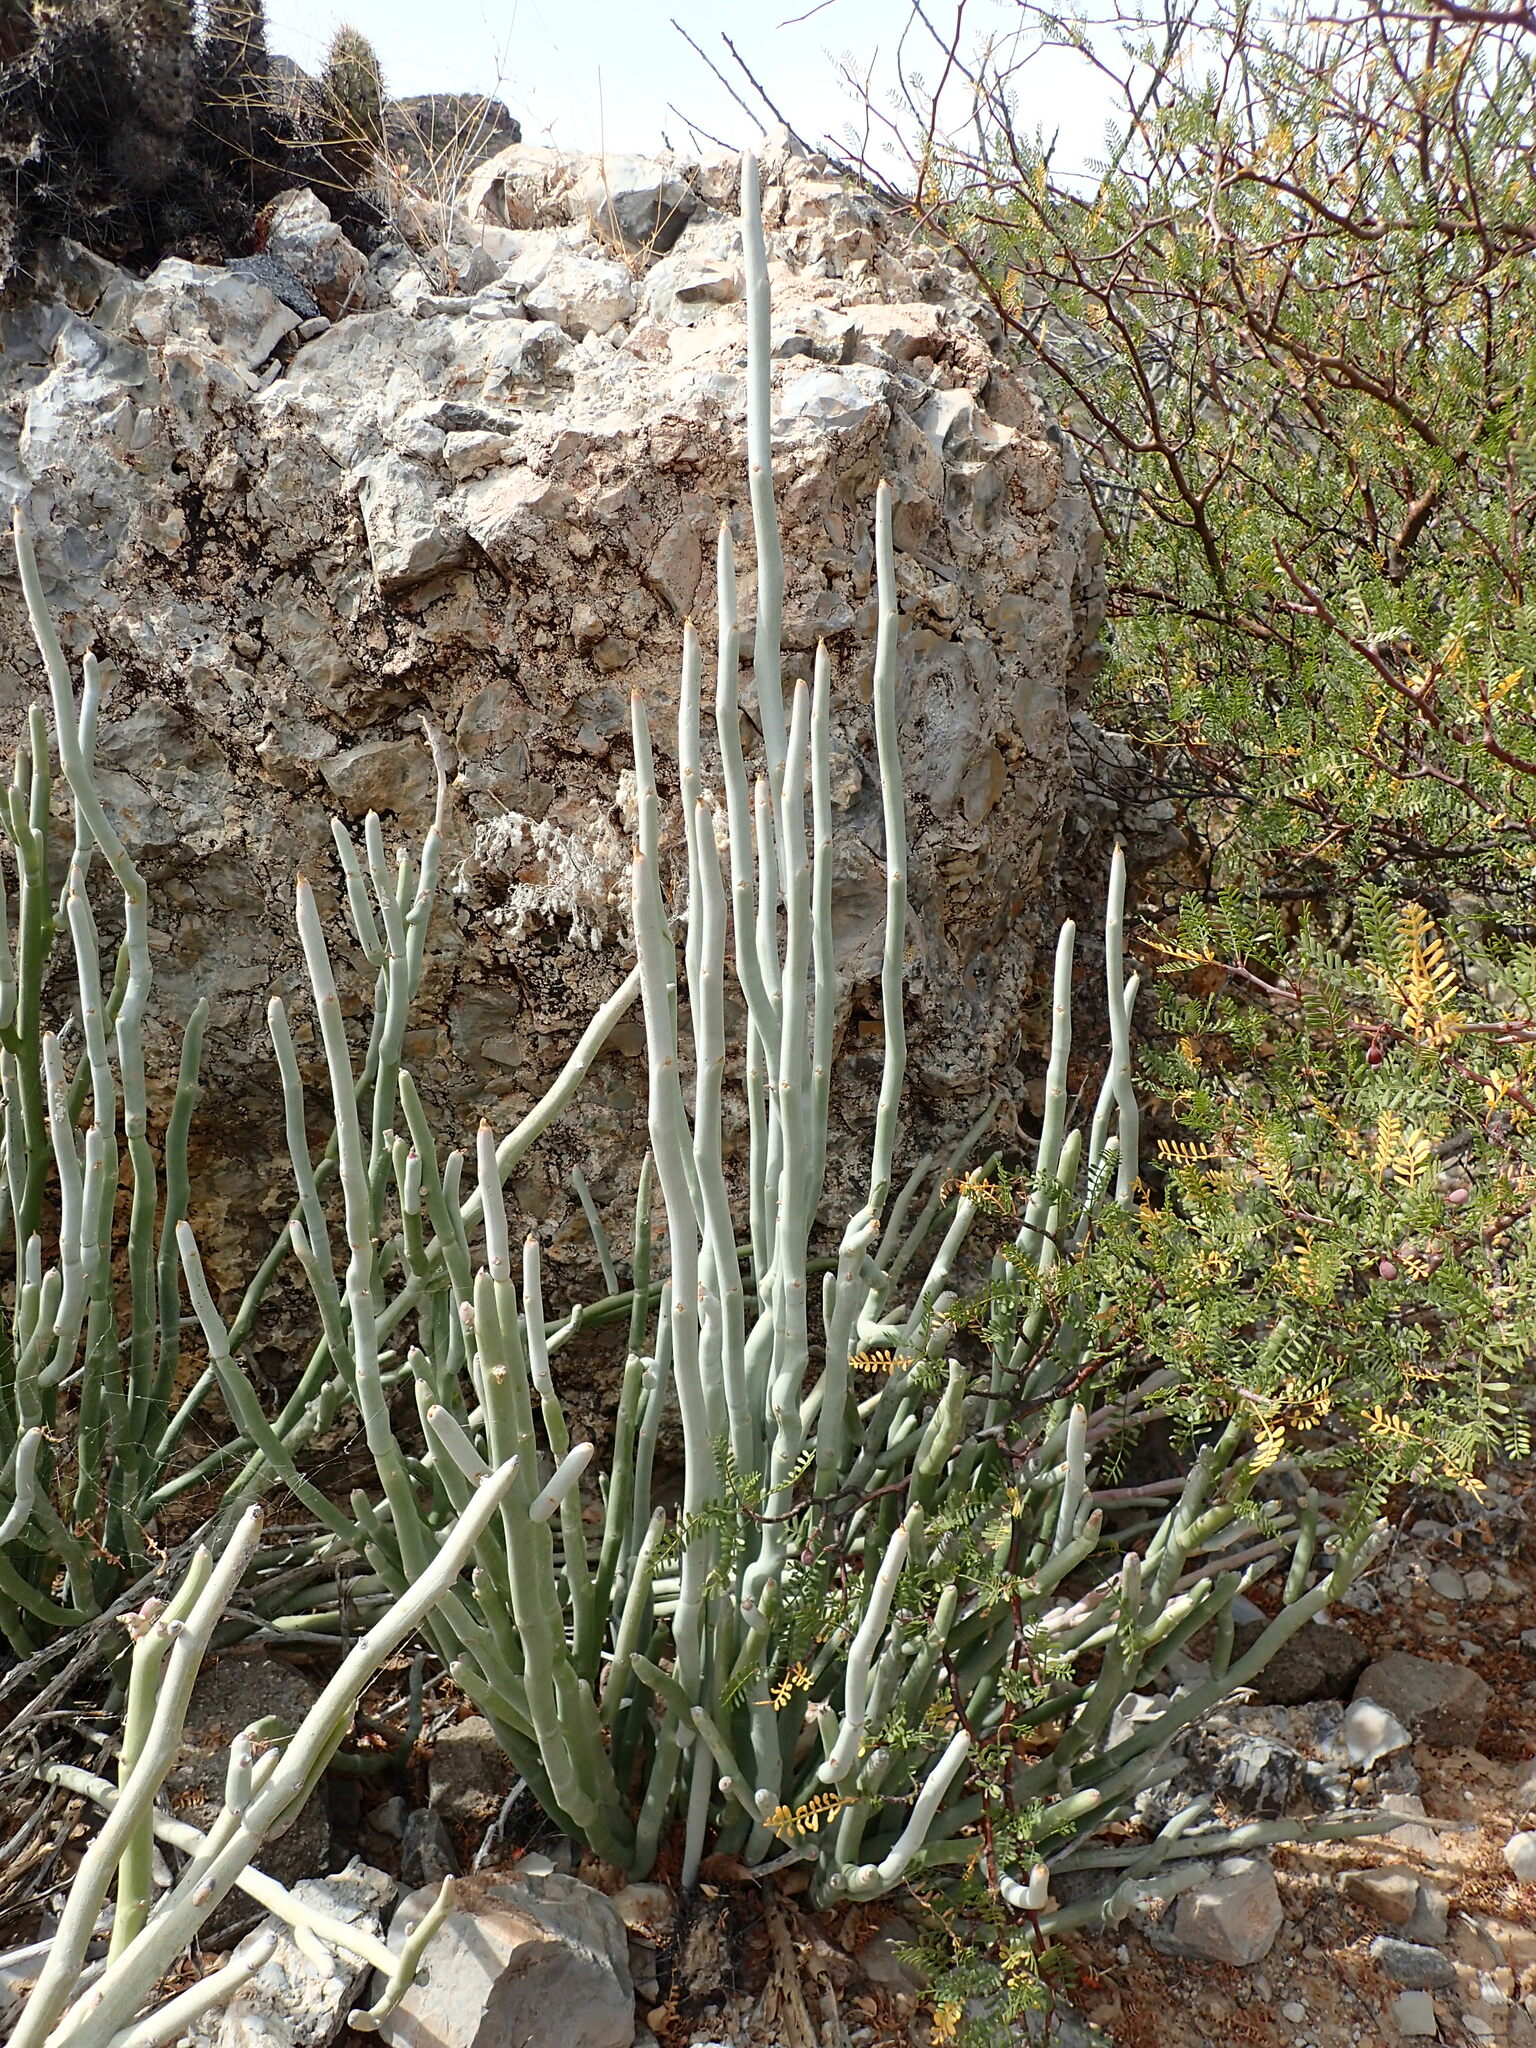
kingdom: Plantae
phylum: Tracheophyta
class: Magnoliopsida
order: Malpighiales
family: Euphorbiaceae
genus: Euphorbia
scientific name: Euphorbia lomelii
